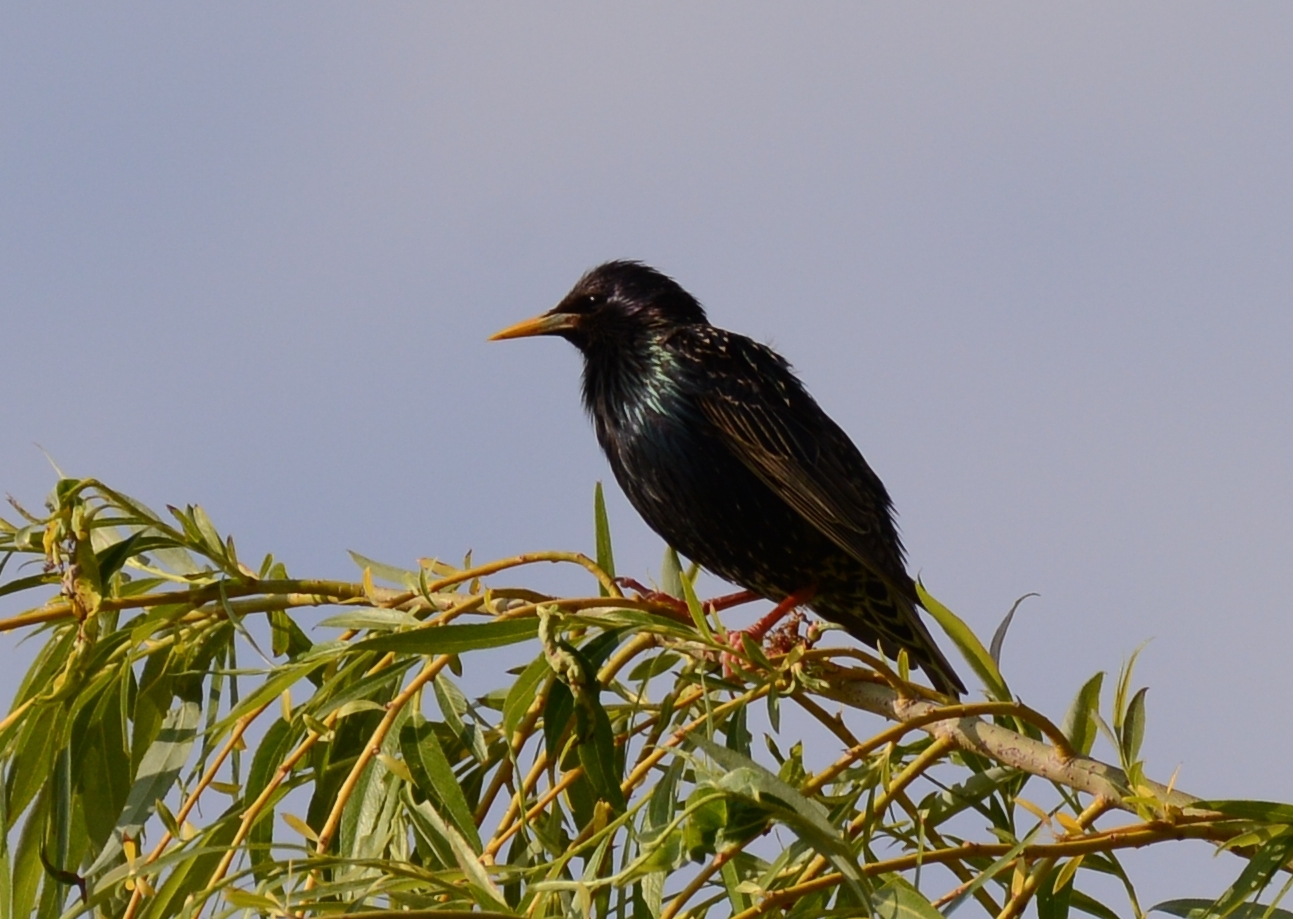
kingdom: Animalia
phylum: Chordata
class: Aves
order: Passeriformes
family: Sturnidae
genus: Sturnus
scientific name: Sturnus vulgaris
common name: Common starling
